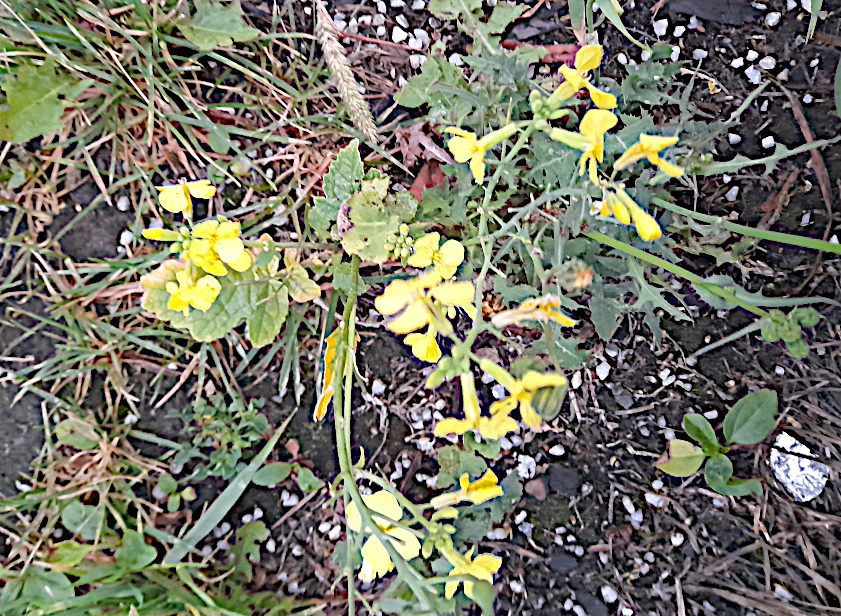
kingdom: Plantae
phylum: Tracheophyta
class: Magnoliopsida
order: Brassicales
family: Brassicaceae
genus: Raphanus
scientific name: Raphanus raphanistrum
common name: Wild radish
